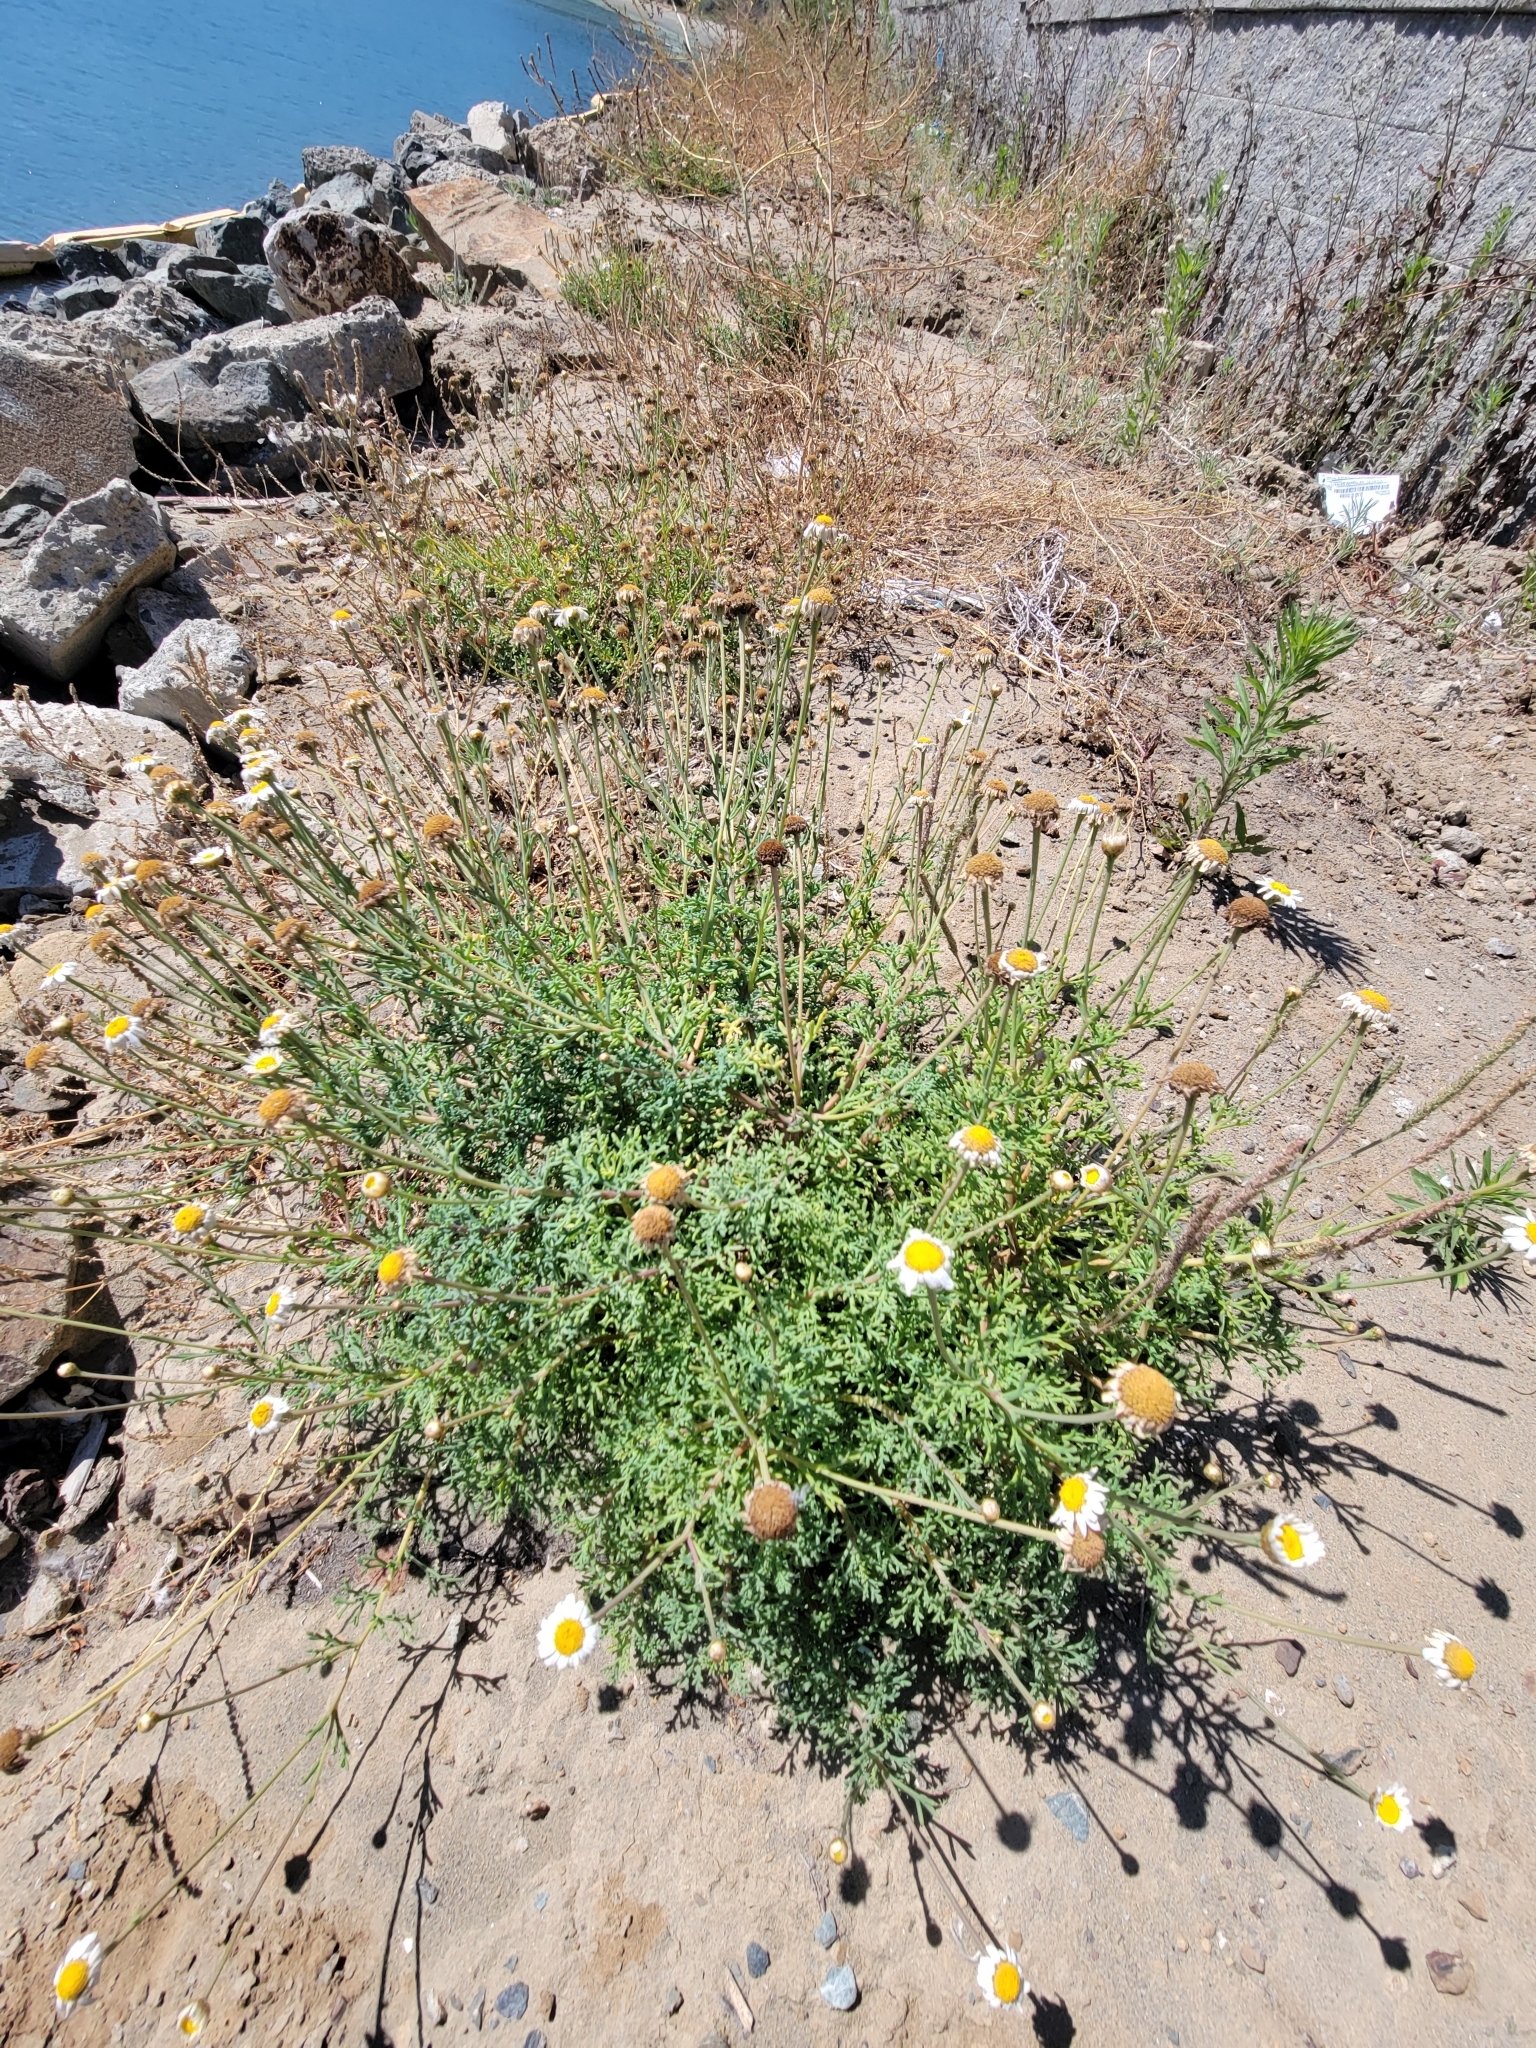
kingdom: Plantae
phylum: Tracheophyta
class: Magnoliopsida
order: Asterales
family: Asteraceae
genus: Argyranthemum
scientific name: Argyranthemum foeniculaceum
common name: Canary island marguerite
